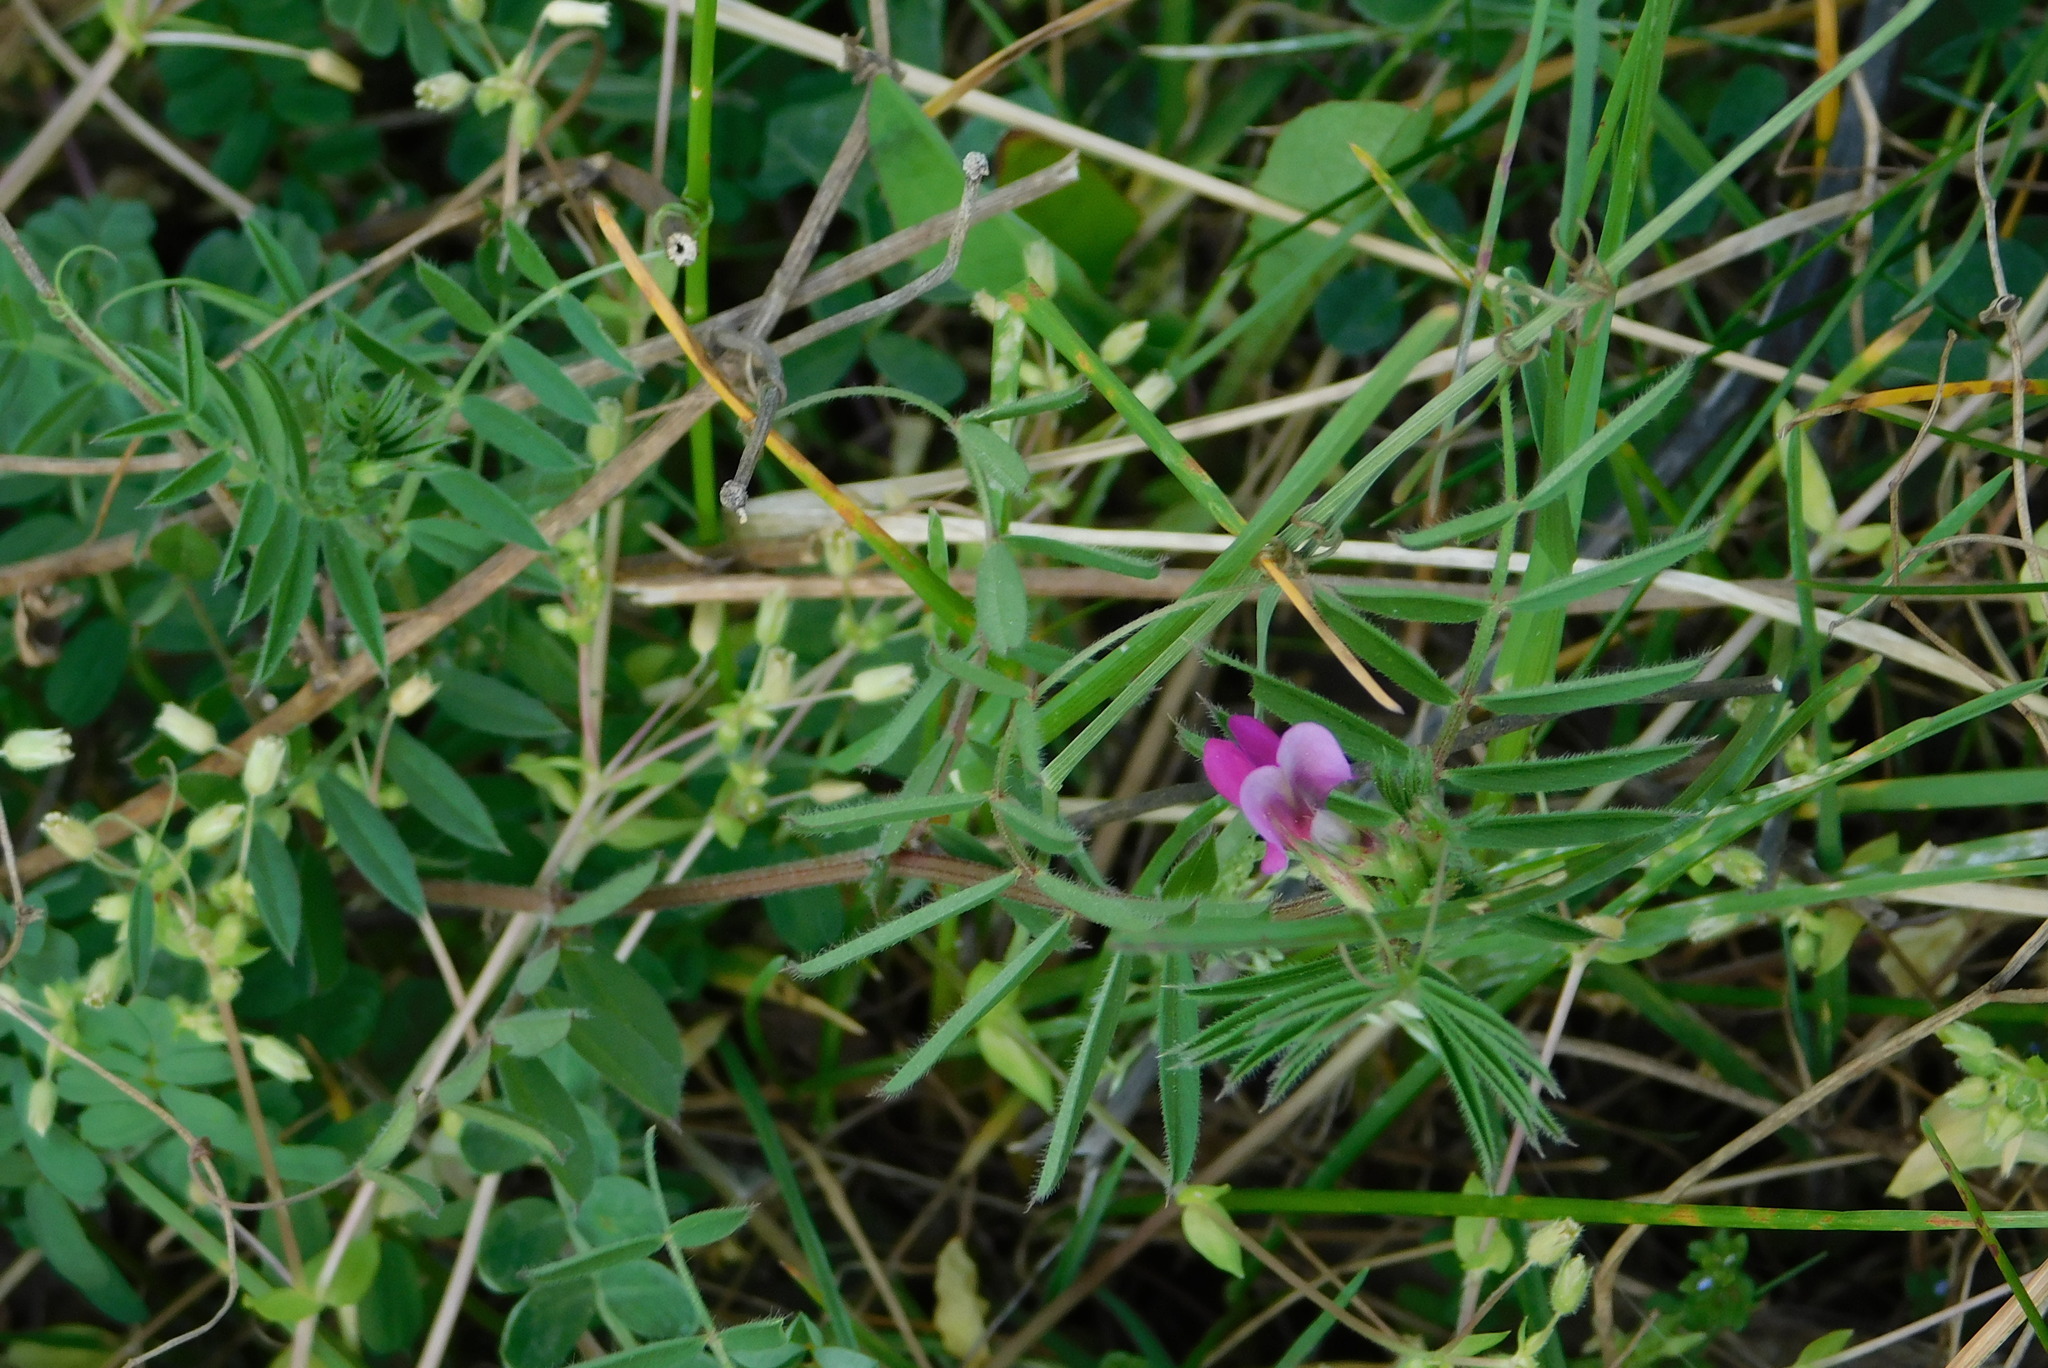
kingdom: Plantae
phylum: Tracheophyta
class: Magnoliopsida
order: Fabales
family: Fabaceae
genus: Vicia
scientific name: Vicia sativa
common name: Garden vetch
